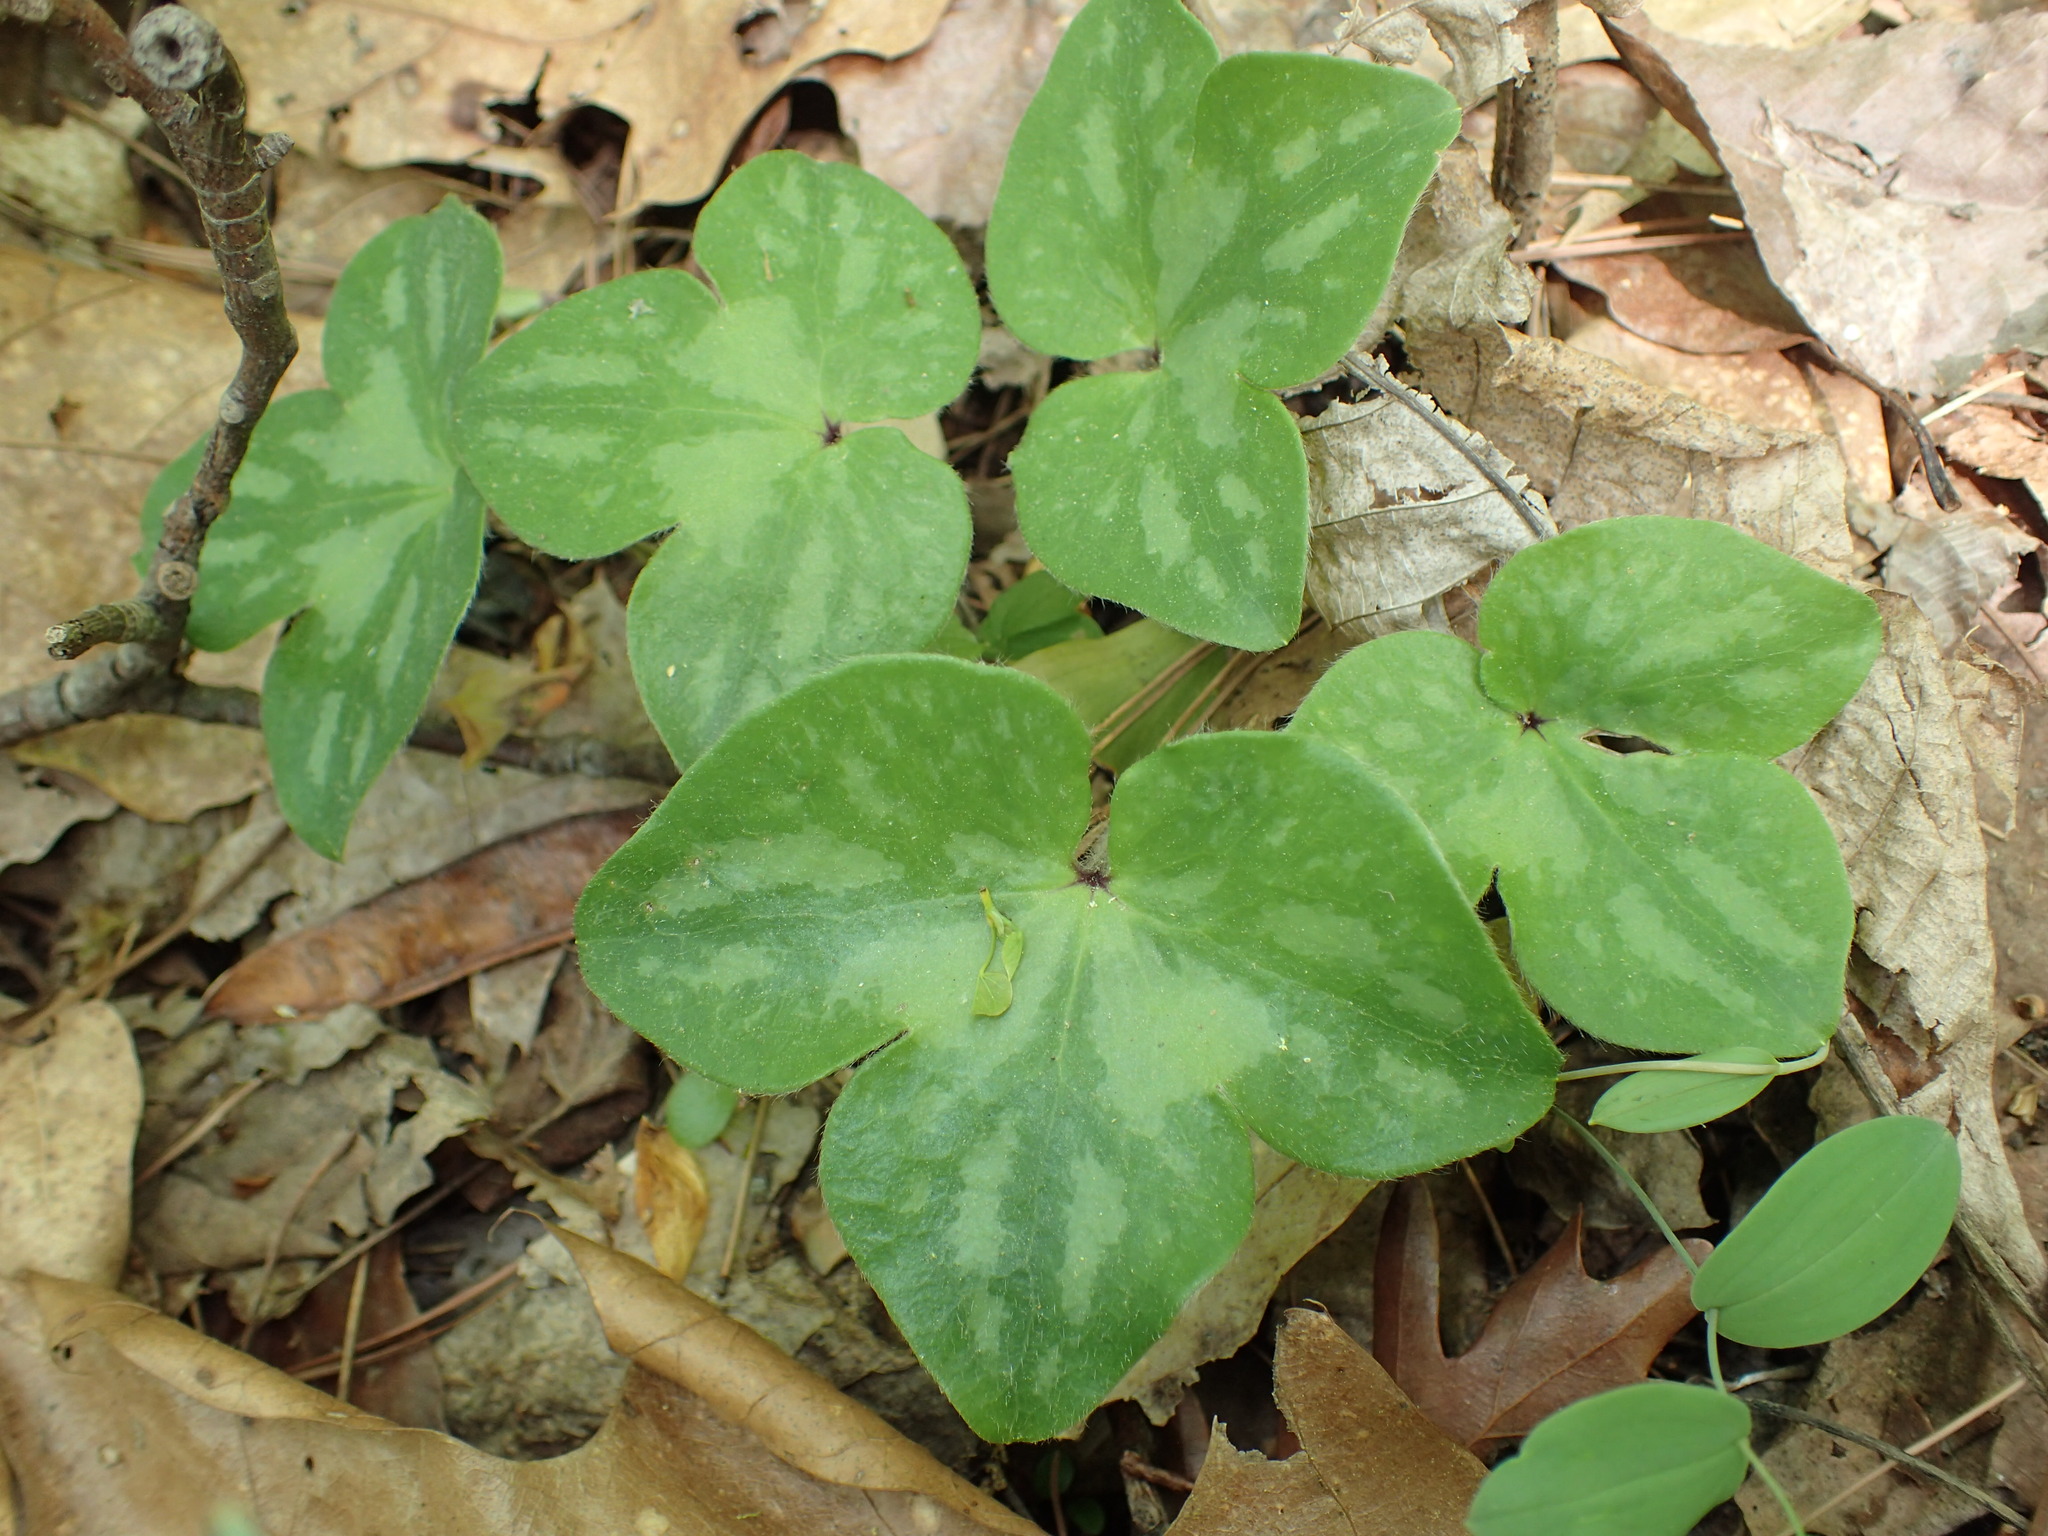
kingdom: Plantae
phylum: Tracheophyta
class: Magnoliopsida
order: Ranunculales
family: Ranunculaceae
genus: Hepatica
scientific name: Hepatica acutiloba
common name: Sharp-lobed hepatica
